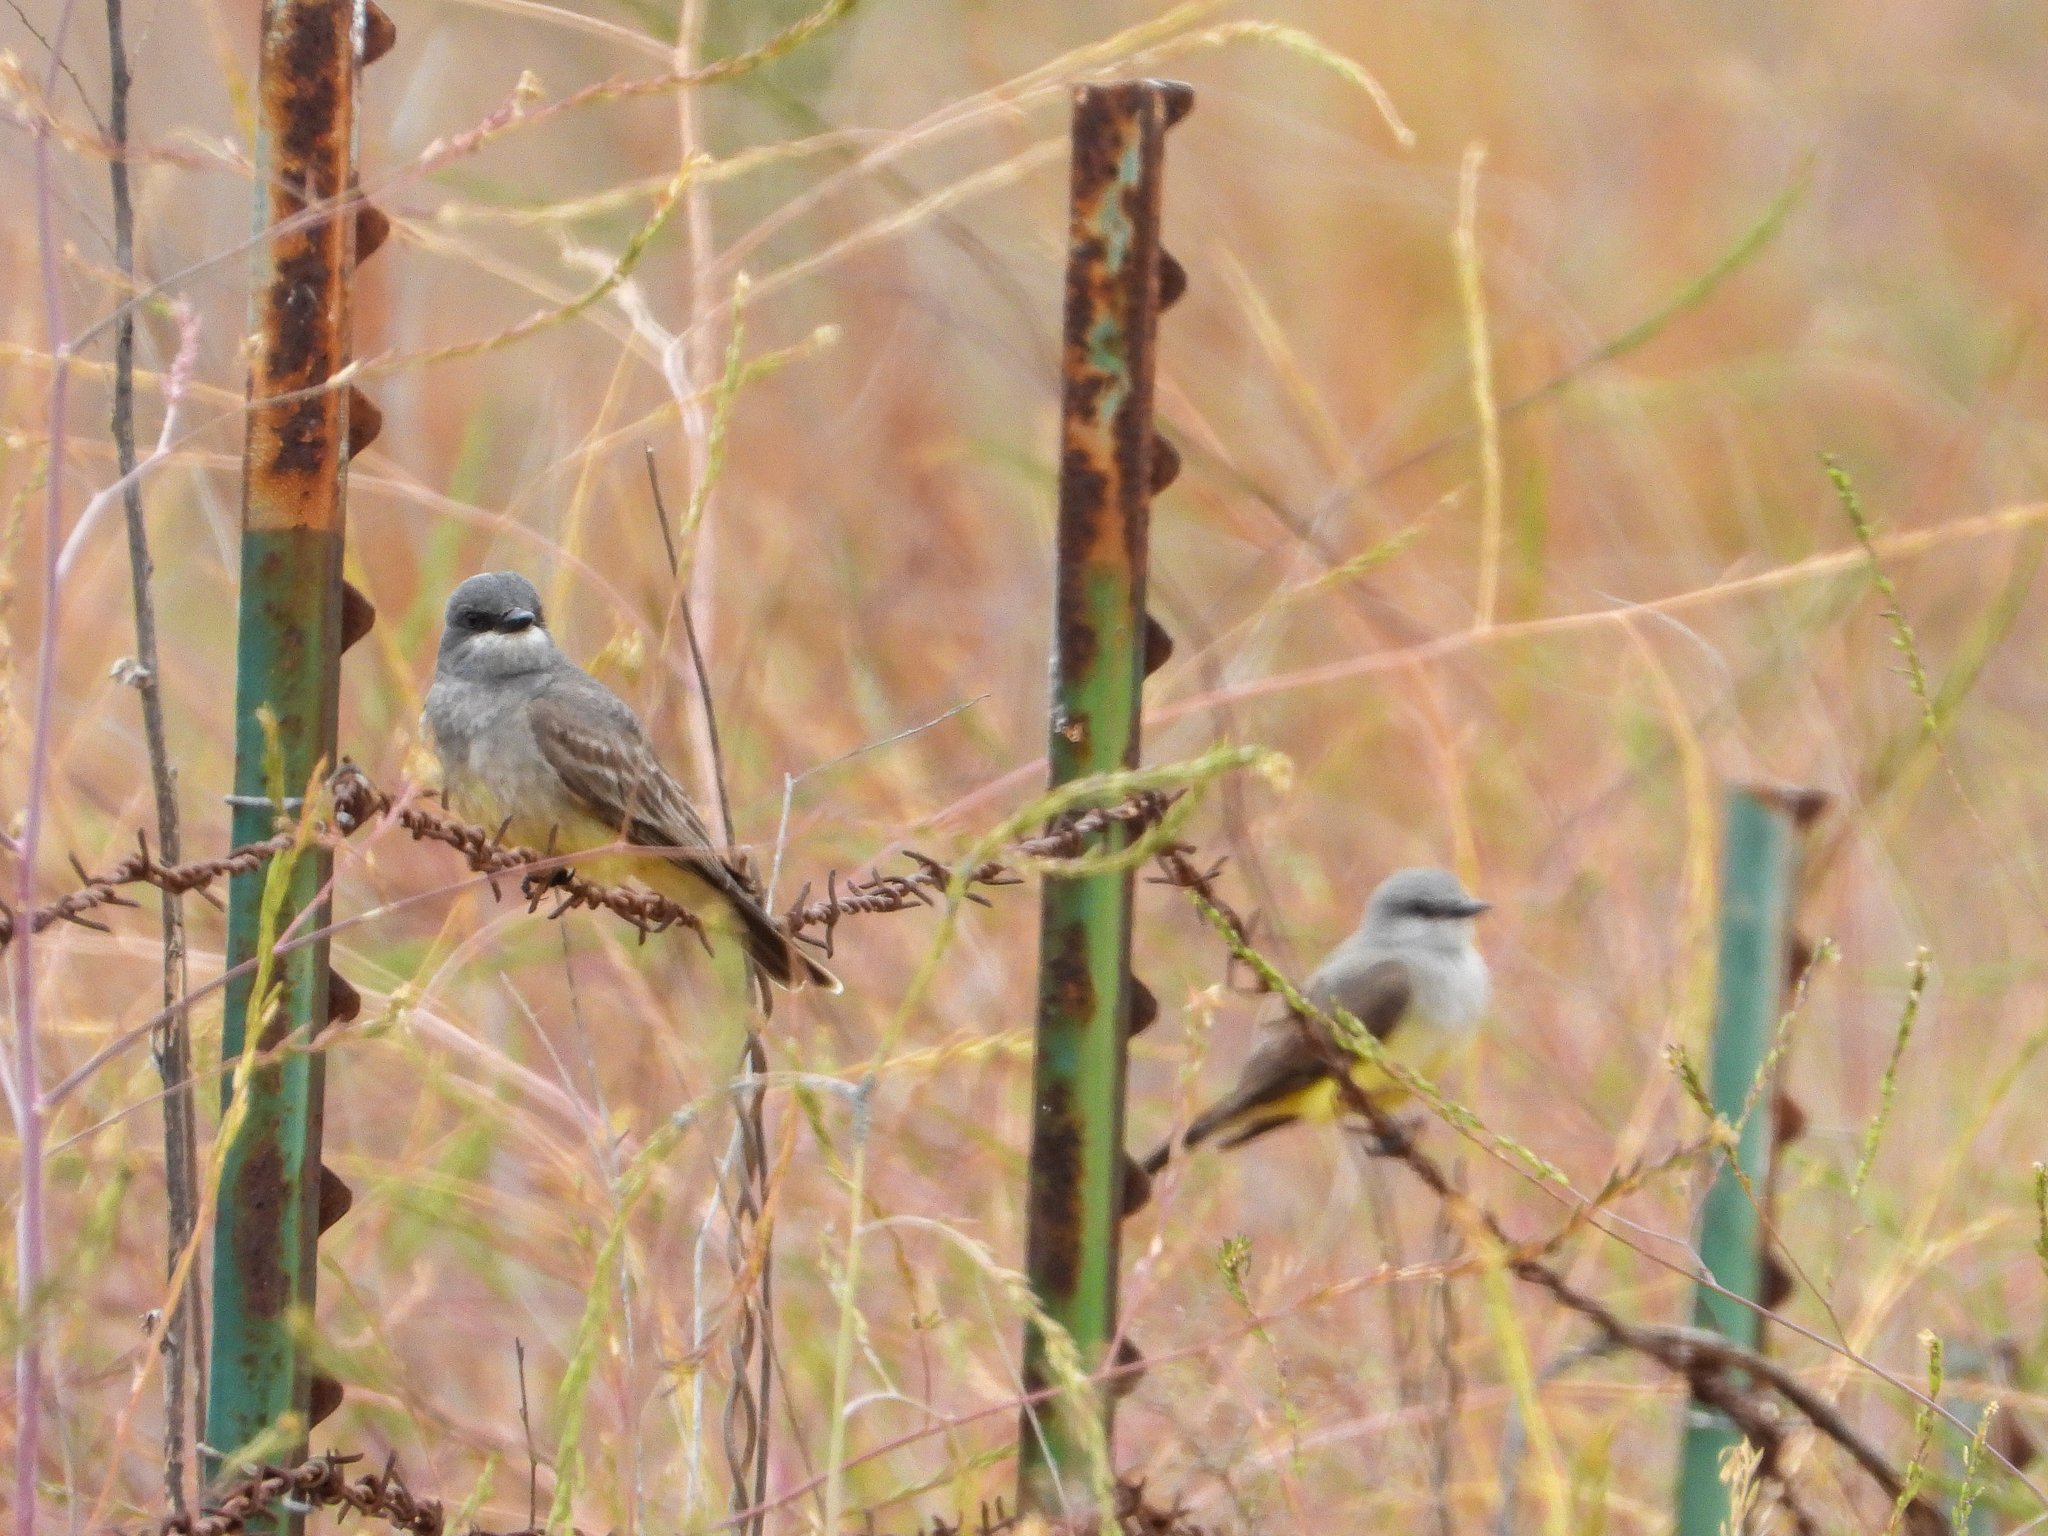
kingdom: Animalia
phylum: Chordata
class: Aves
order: Passeriformes
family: Tyrannidae
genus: Tyrannus
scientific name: Tyrannus verticalis
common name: Western kingbird
